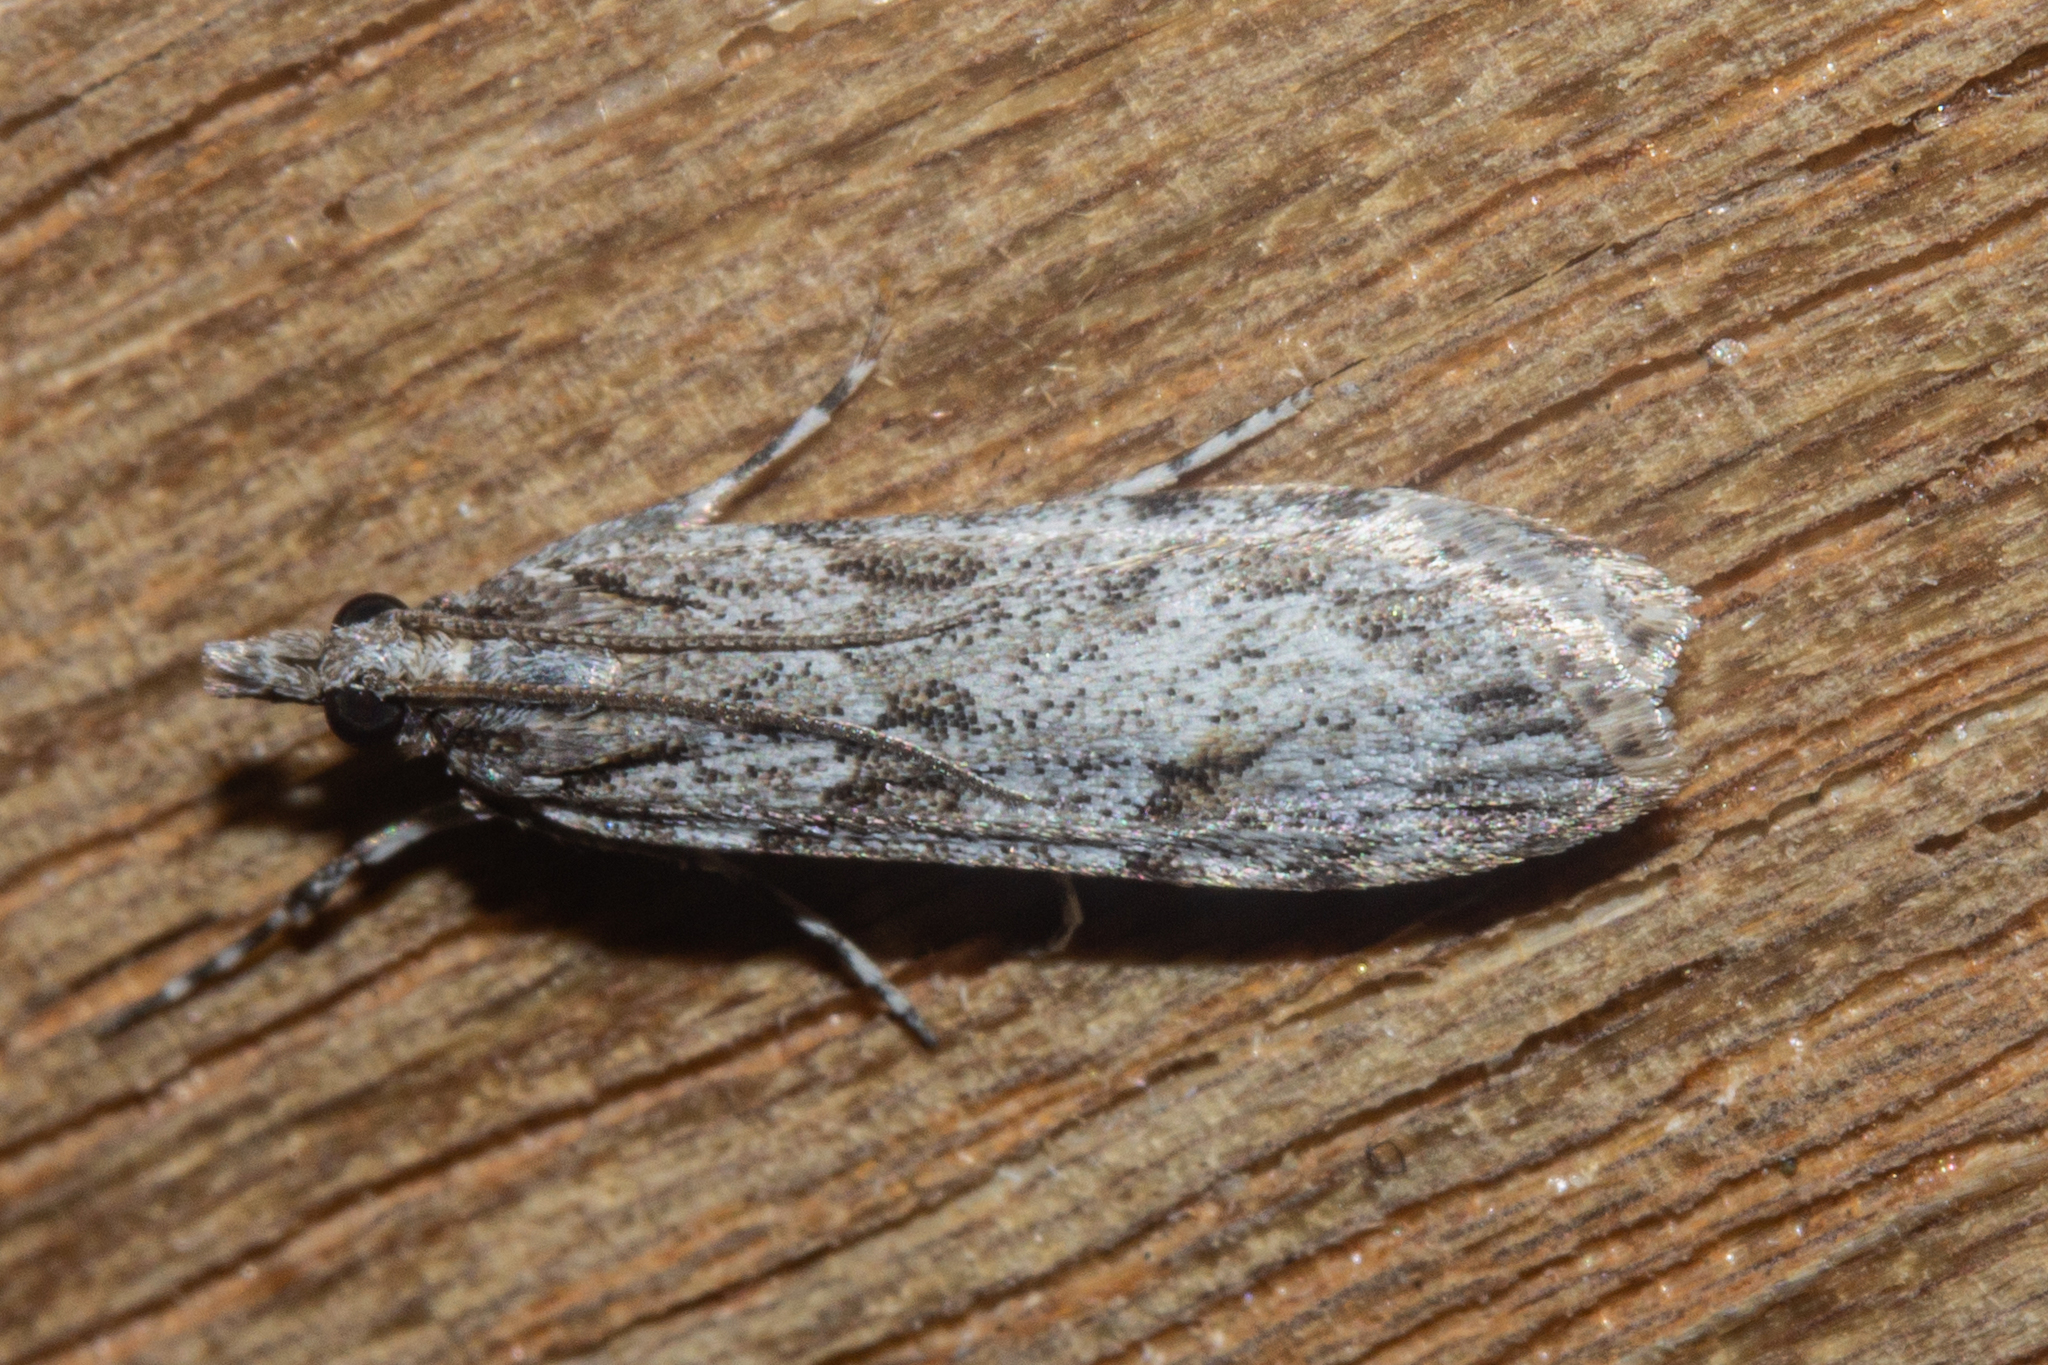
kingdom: Animalia
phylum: Arthropoda
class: Insecta
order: Lepidoptera
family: Crambidae
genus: Scoparia
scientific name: Scoparia chalicodes
